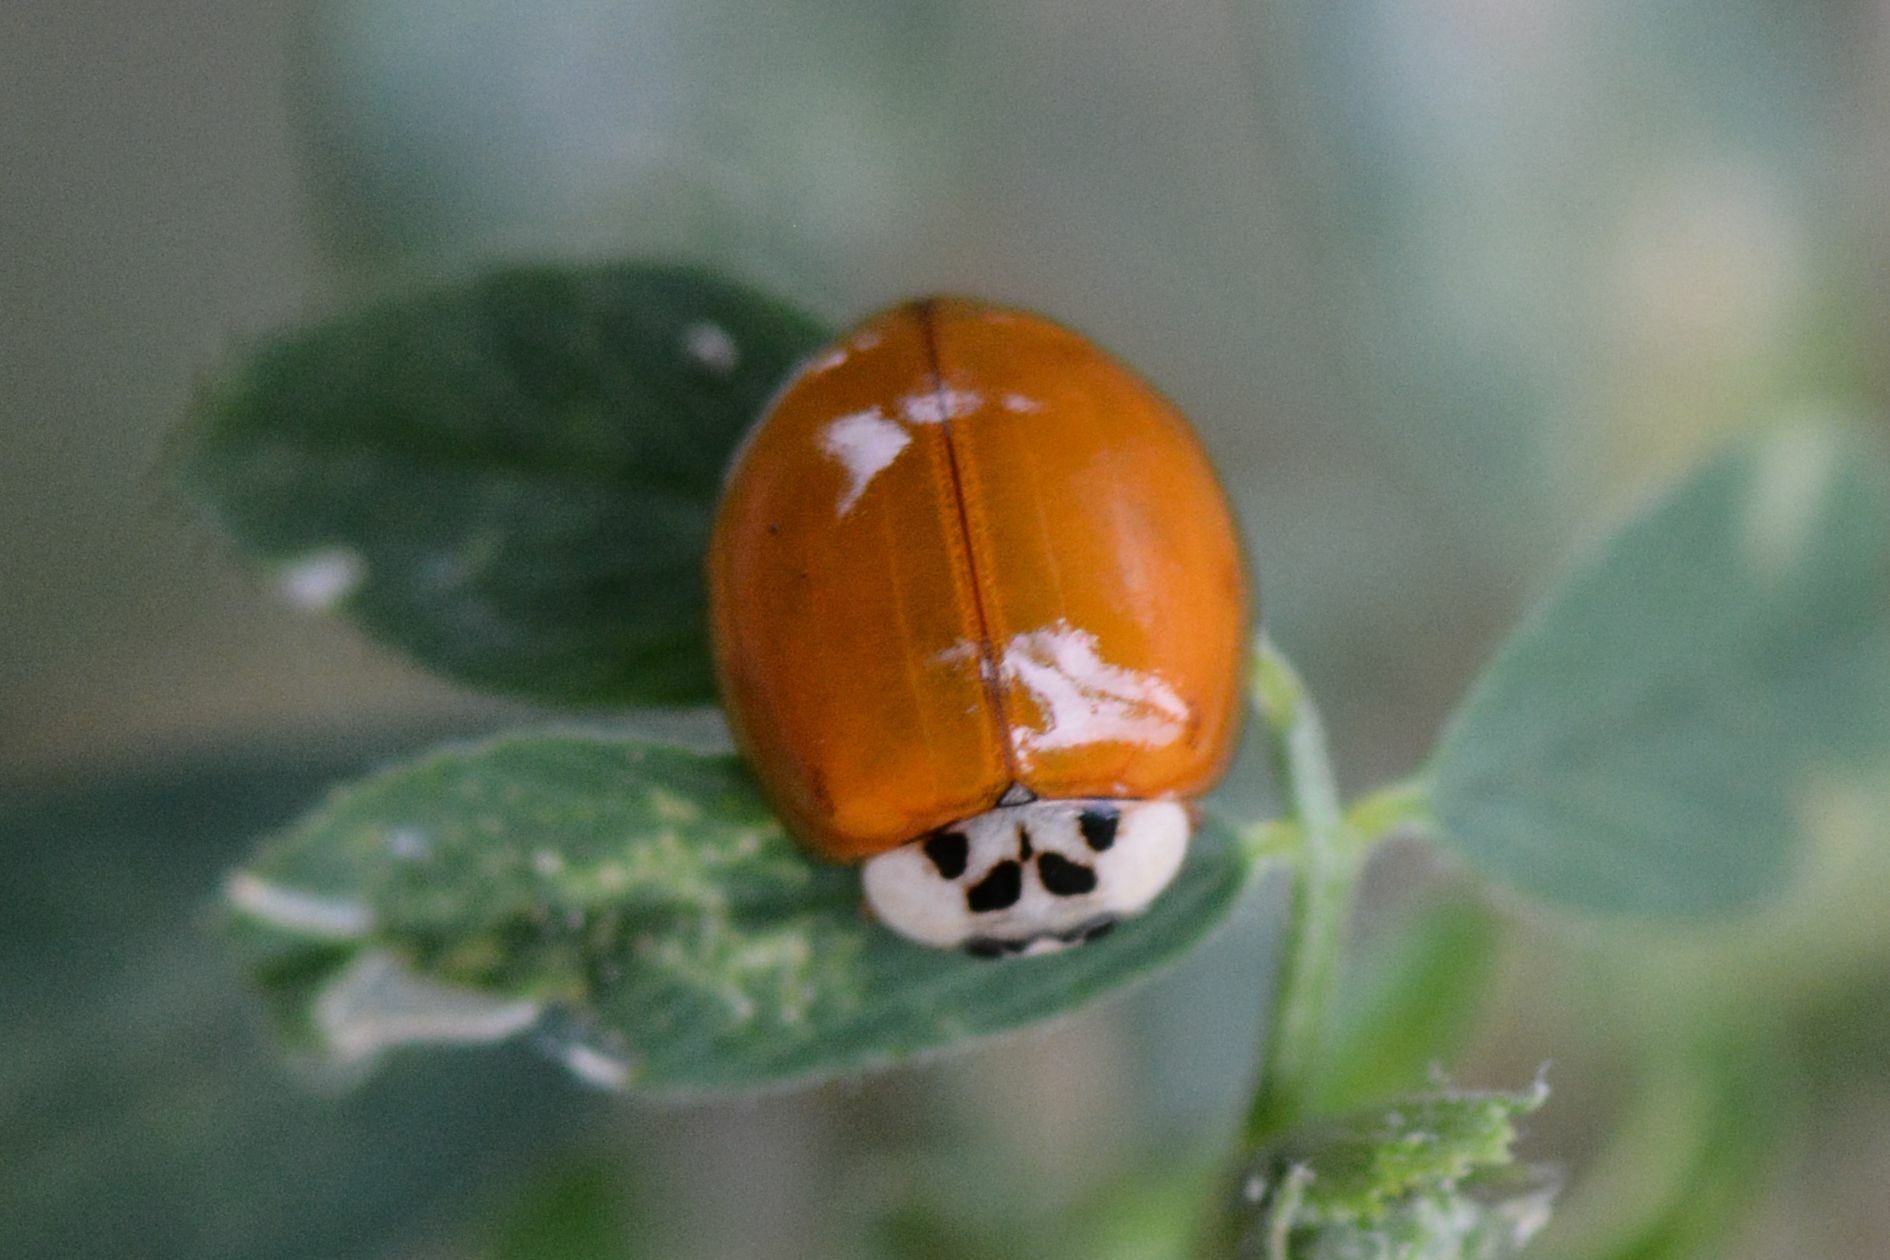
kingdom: Animalia
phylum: Arthropoda
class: Insecta
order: Coleoptera
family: Coccinellidae
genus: Harmonia
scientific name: Harmonia axyridis
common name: Harlequin ladybird
